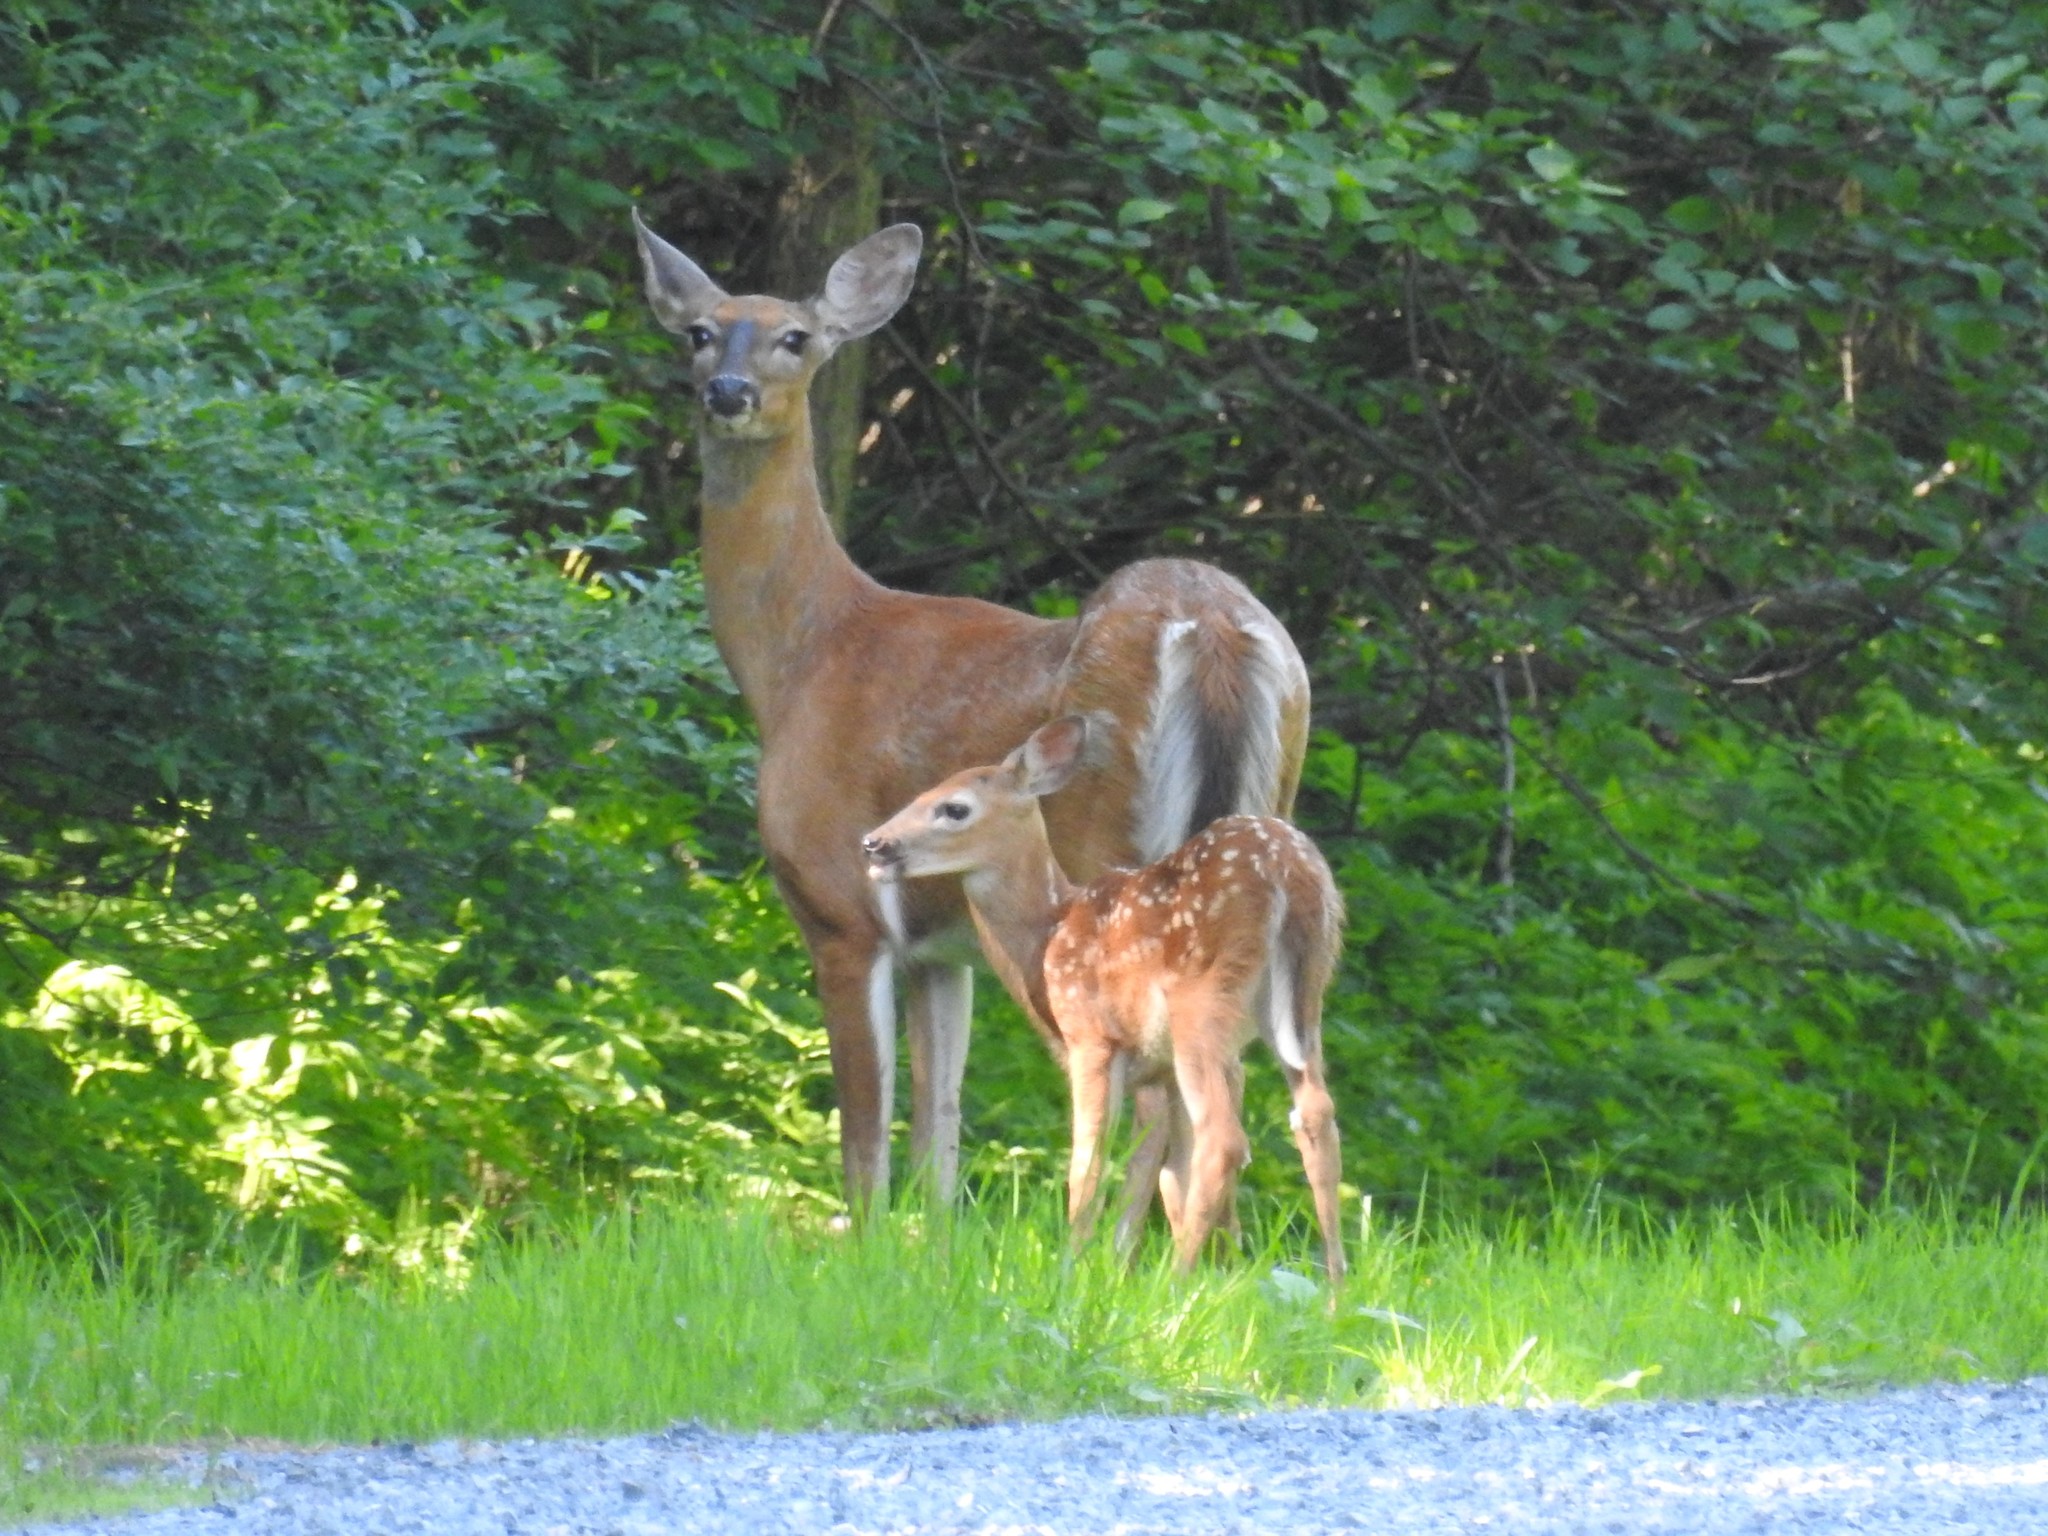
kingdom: Animalia
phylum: Chordata
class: Mammalia
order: Artiodactyla
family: Cervidae
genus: Odocoileus
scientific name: Odocoileus virginianus
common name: White-tailed deer
